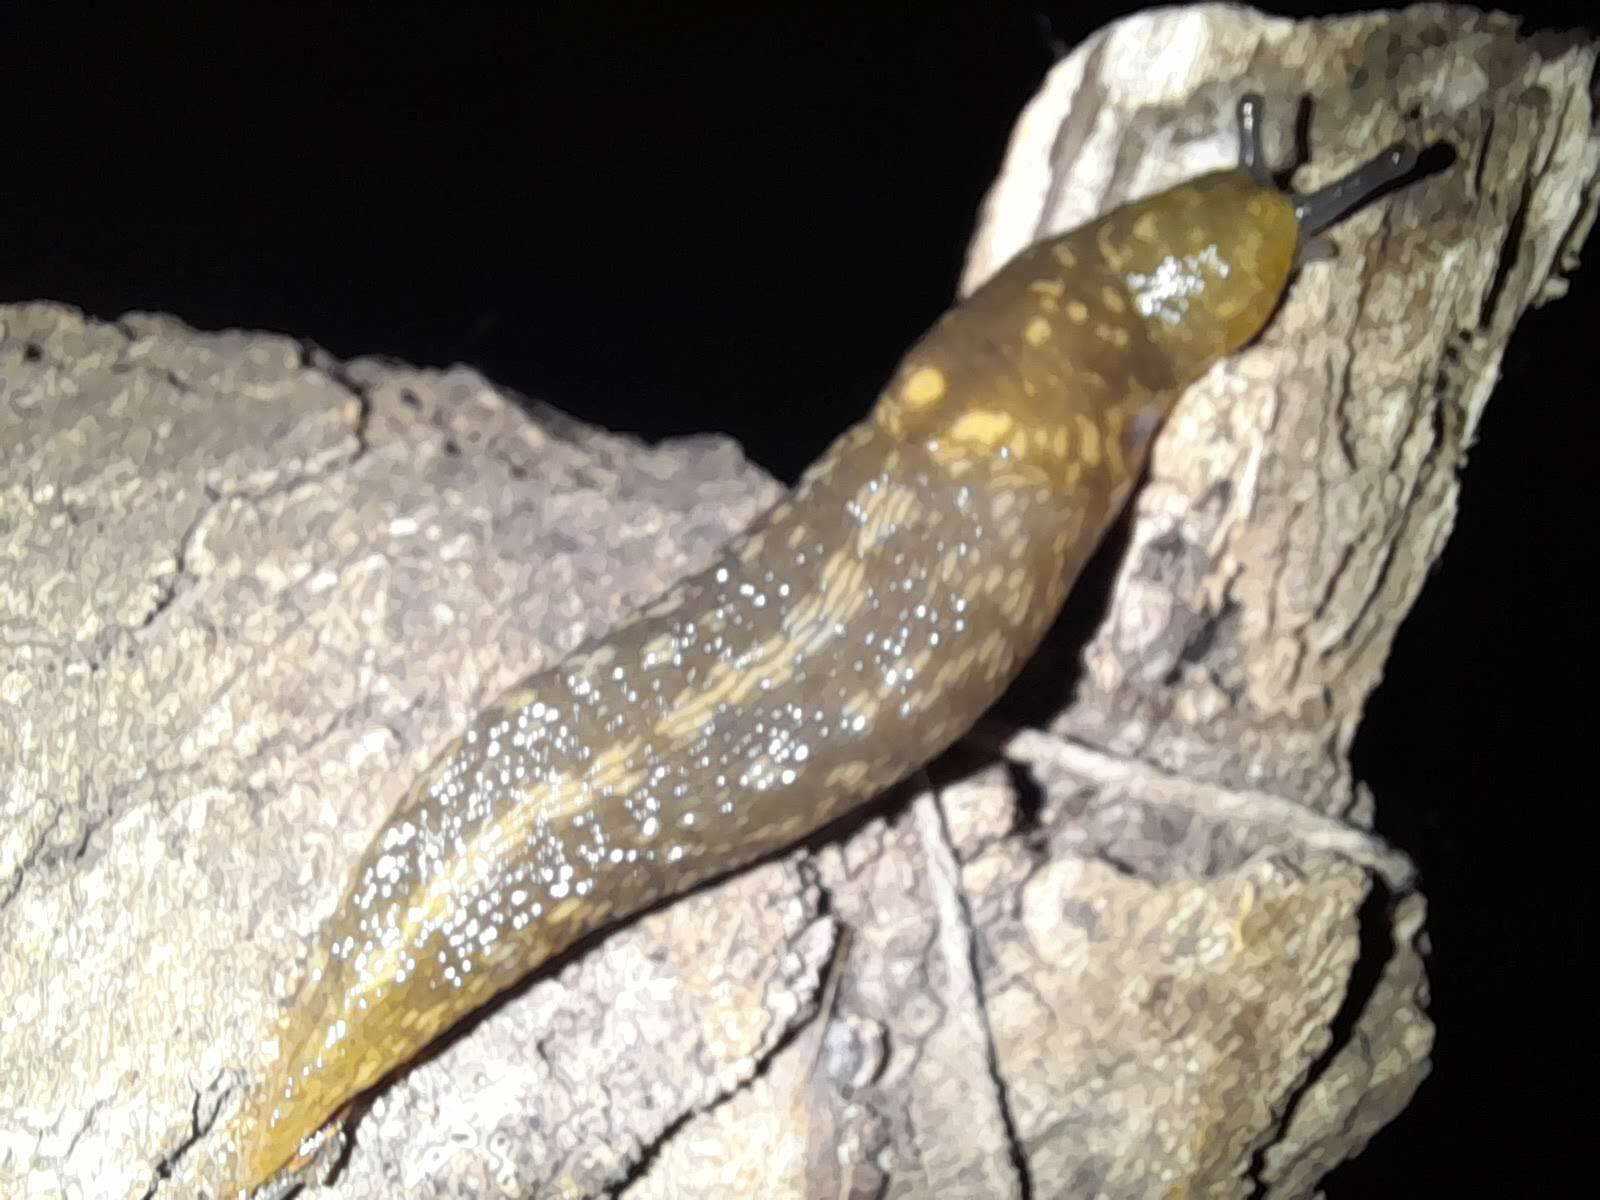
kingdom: Animalia
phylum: Mollusca
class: Gastropoda
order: Stylommatophora
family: Limacidae
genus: Limacus
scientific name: Limacus flavus
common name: Yellow gardenslug
